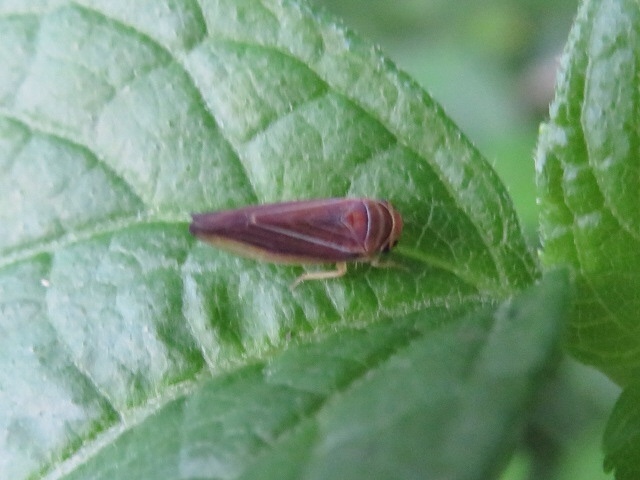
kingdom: Animalia
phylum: Arthropoda
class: Insecta
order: Hemiptera
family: Cicadellidae
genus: Idiodonus
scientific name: Idiodonus kennicotti
